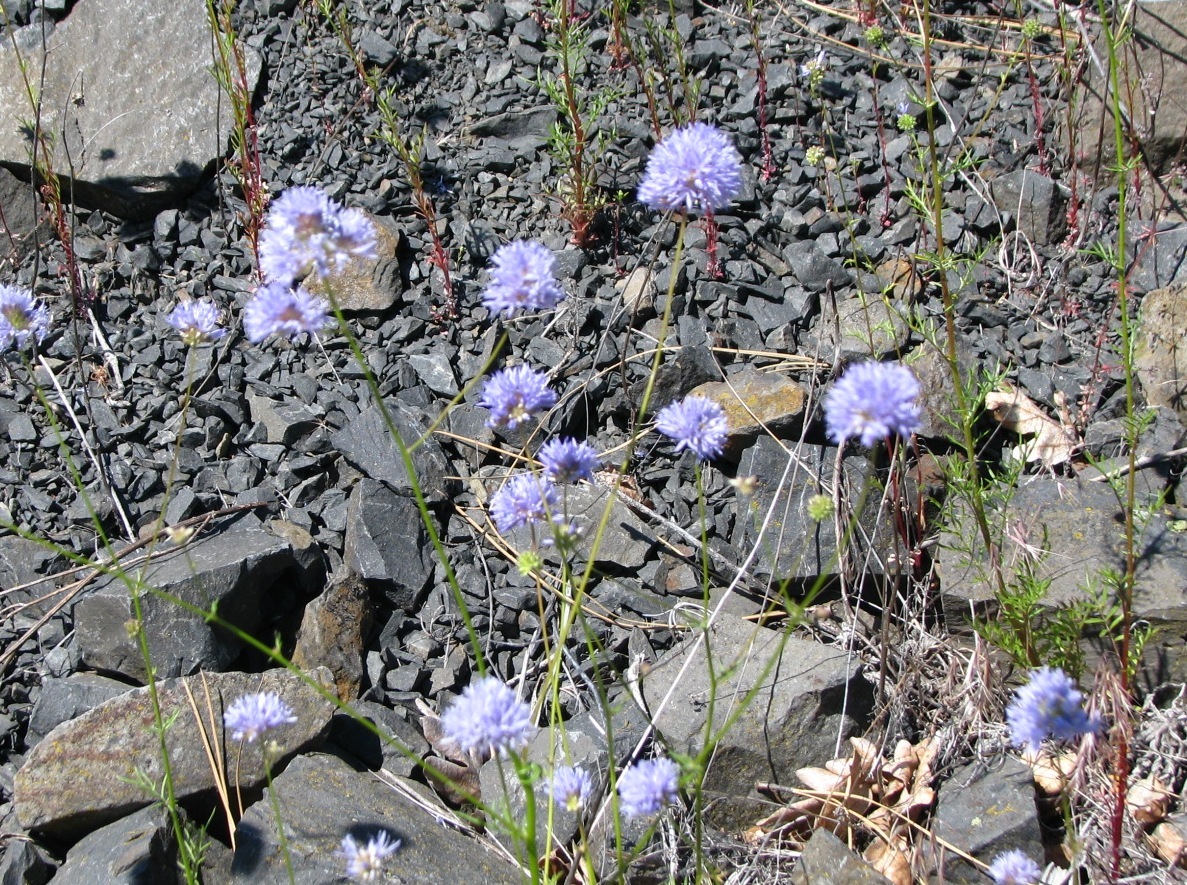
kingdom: Plantae
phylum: Tracheophyta
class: Magnoliopsida
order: Ericales
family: Polemoniaceae
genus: Gilia
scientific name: Gilia capitata
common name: Bluehead gilia
